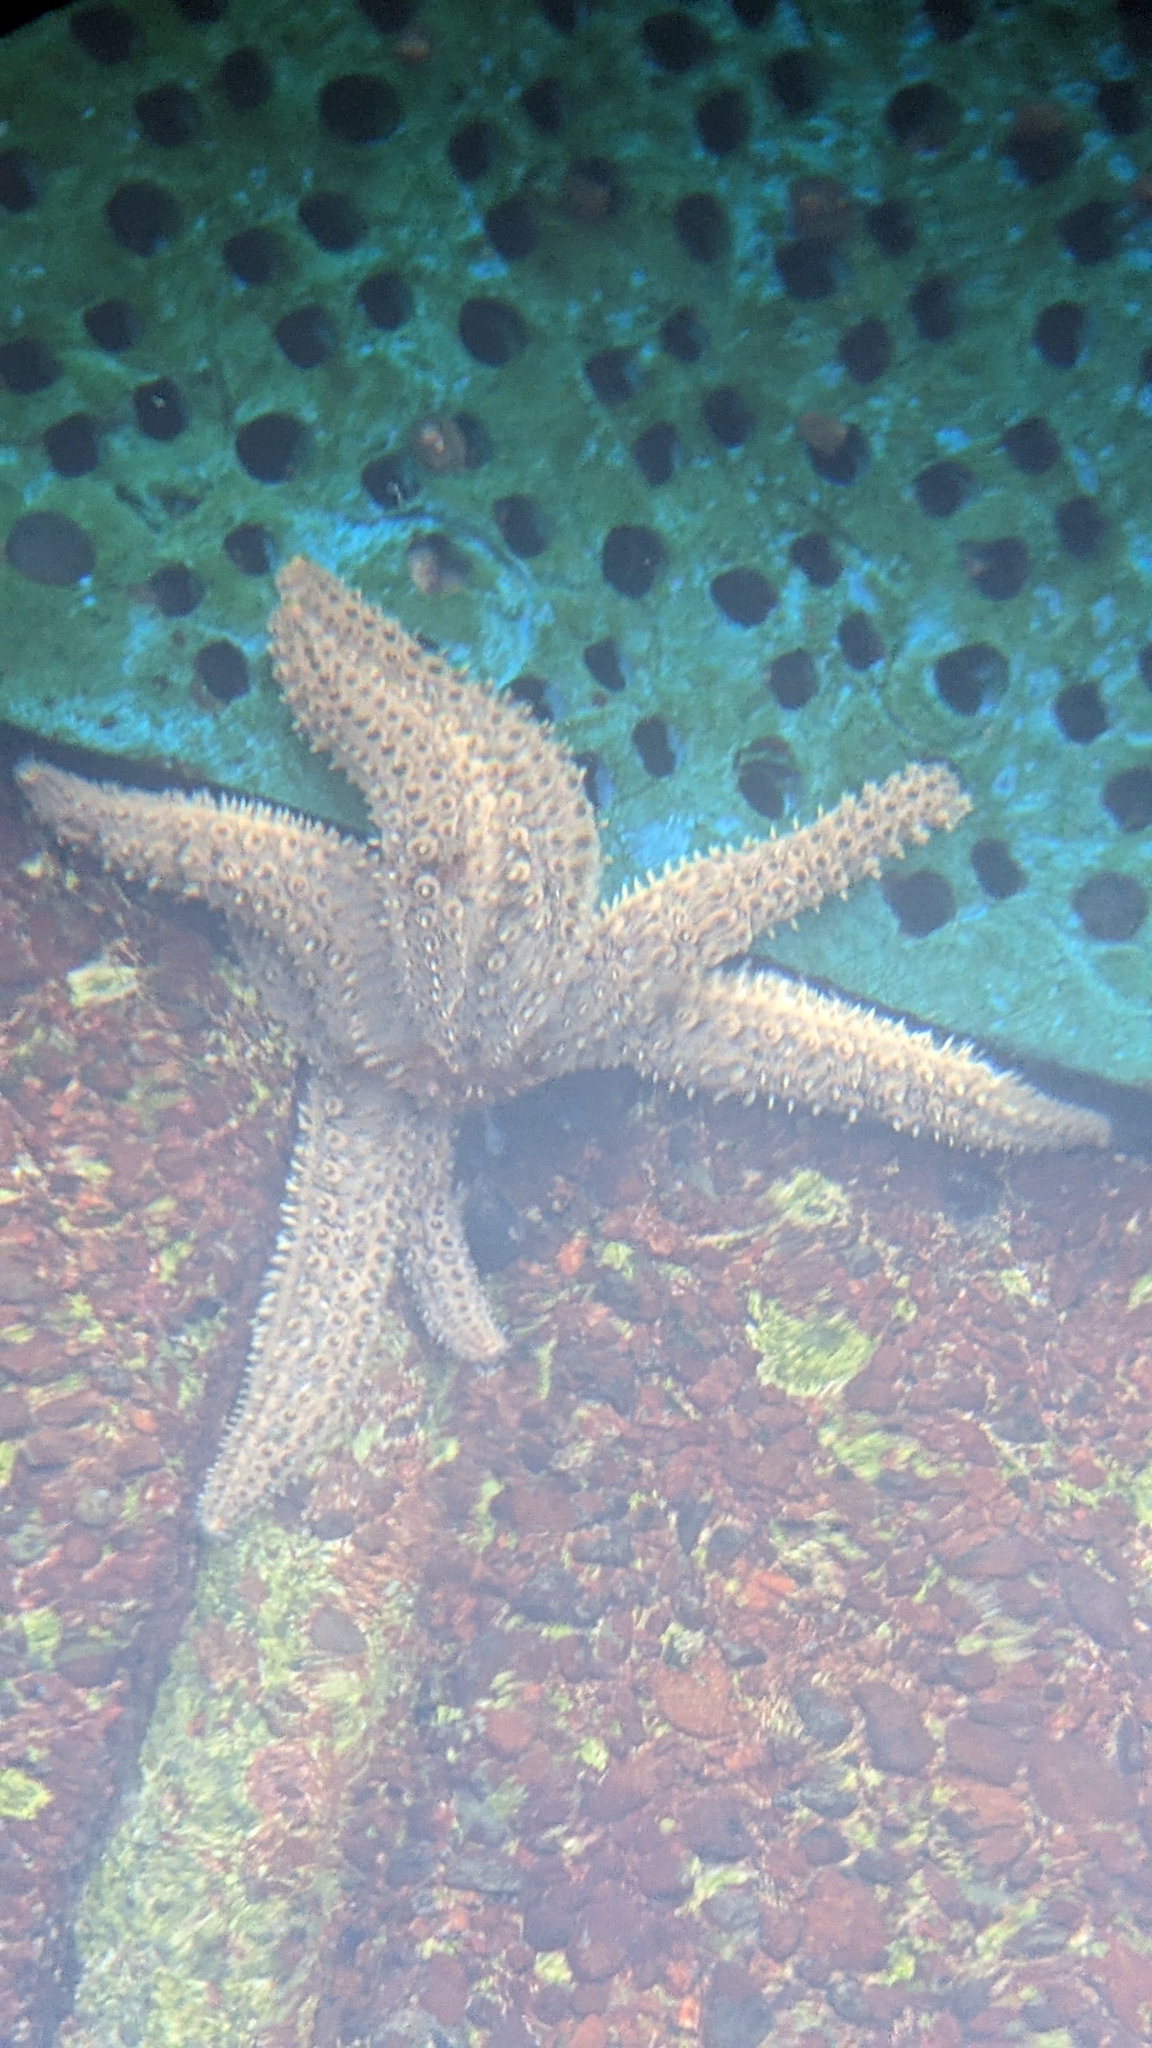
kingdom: Animalia
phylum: Echinodermata
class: Asteroidea
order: Forcipulatida
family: Asteriidae
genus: Coscinasterias
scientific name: Coscinasterias muricata
